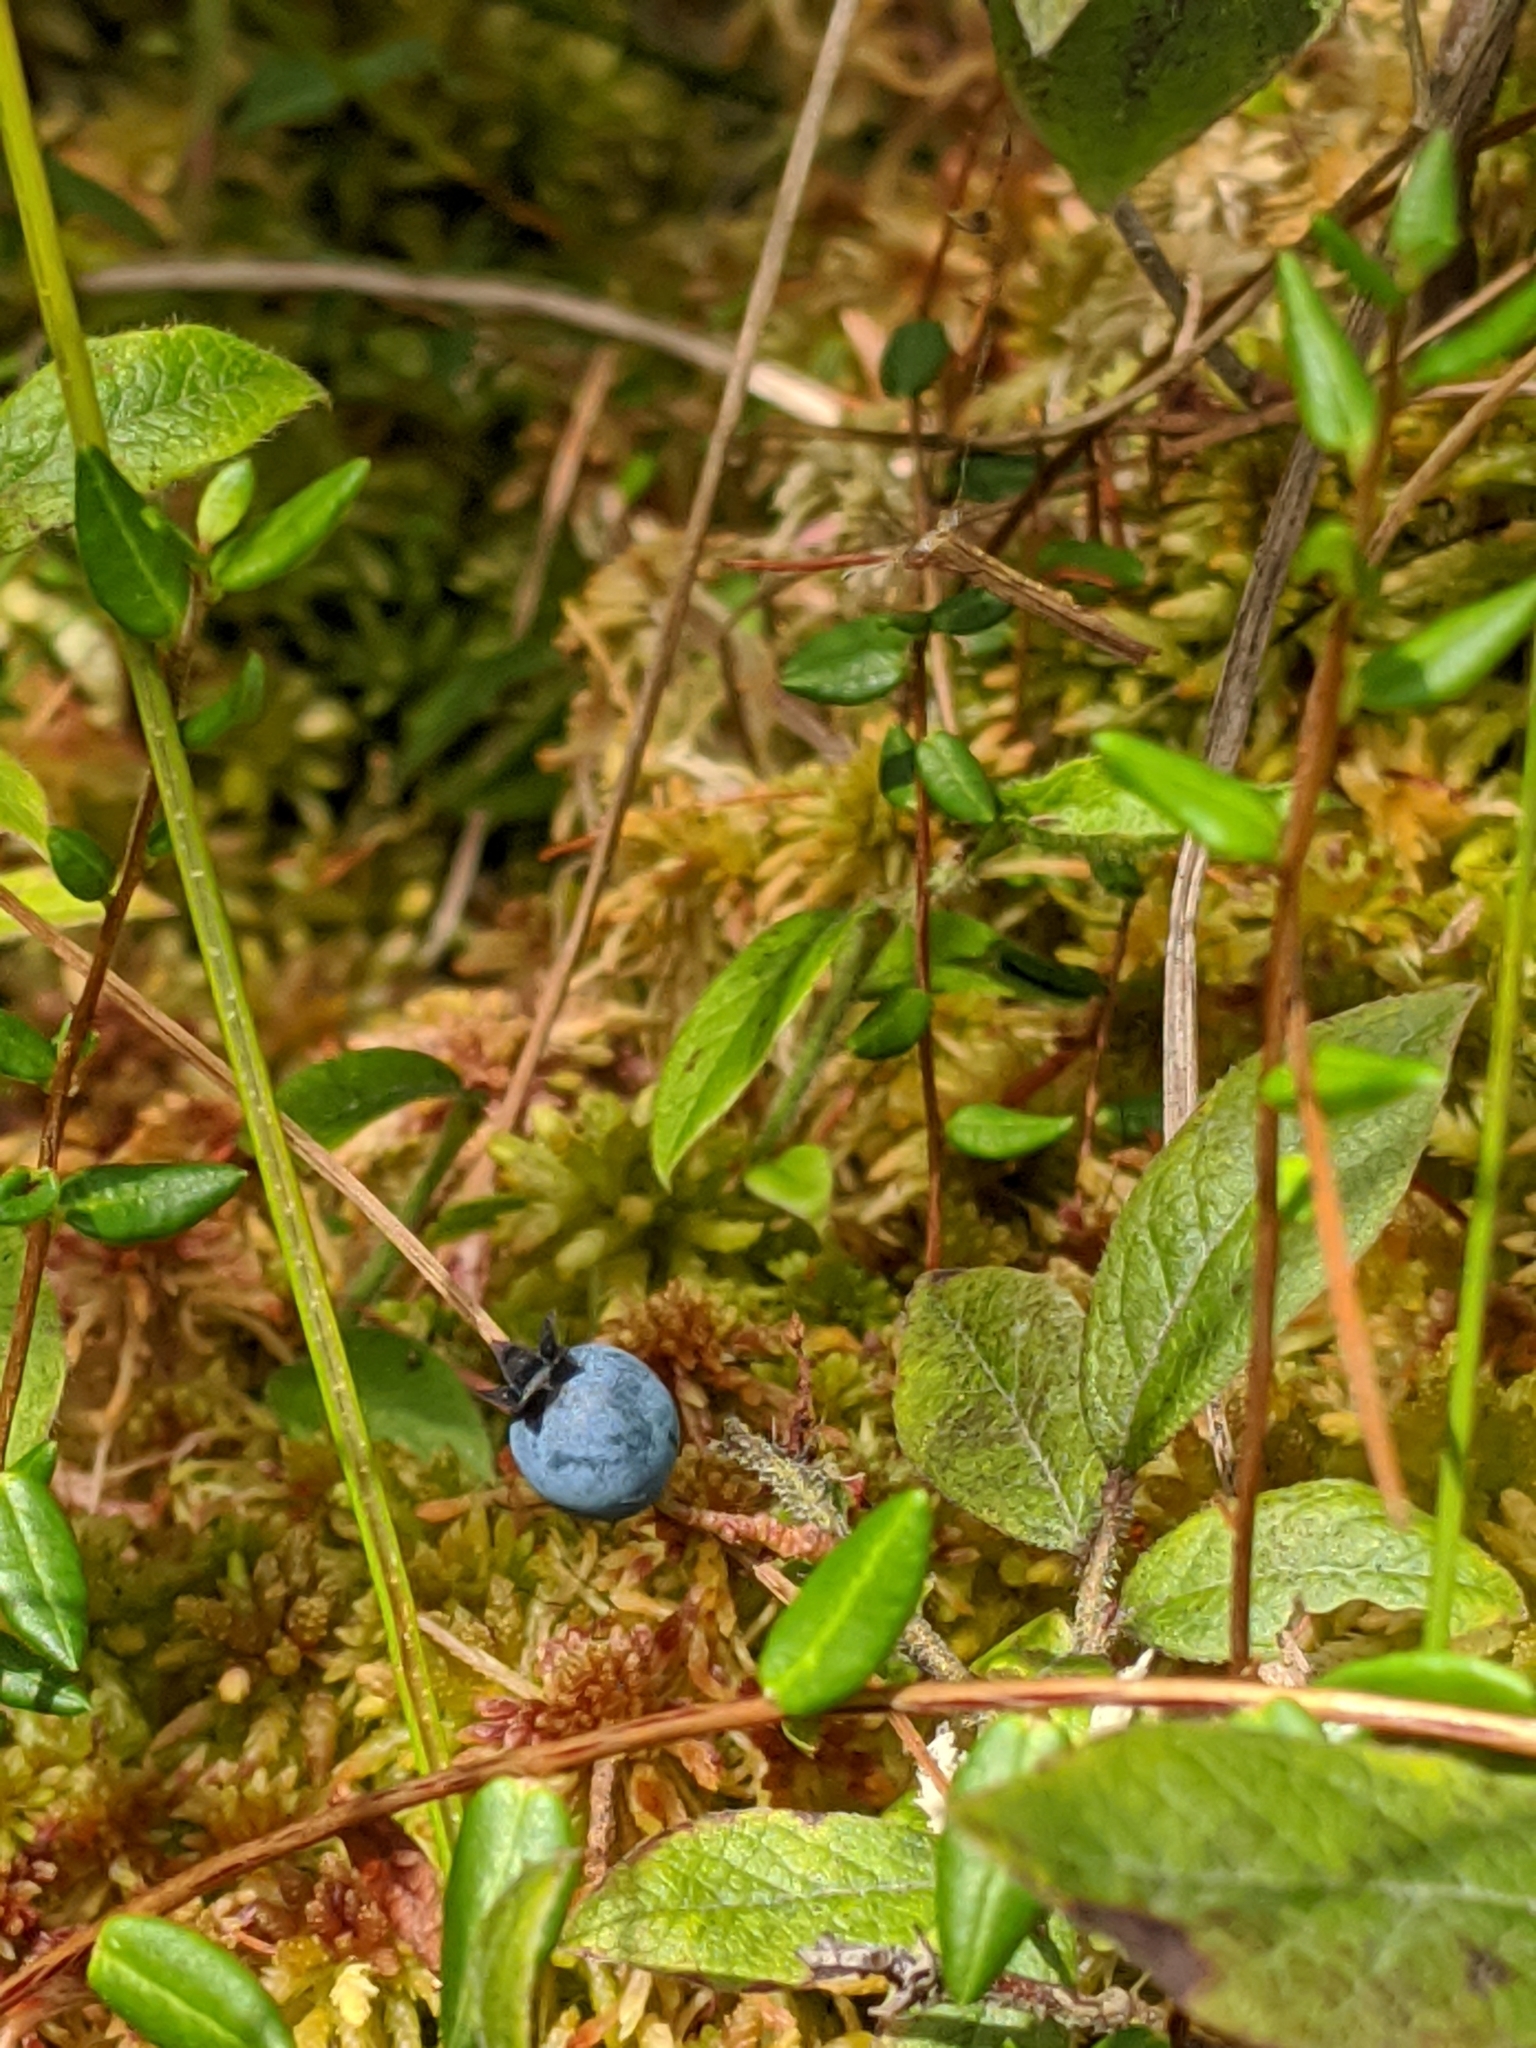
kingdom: Plantae
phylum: Tracheophyta
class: Magnoliopsida
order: Ericales
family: Ericaceae
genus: Vaccinium
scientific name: Vaccinium myrtilloides
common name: Canada blueberry
